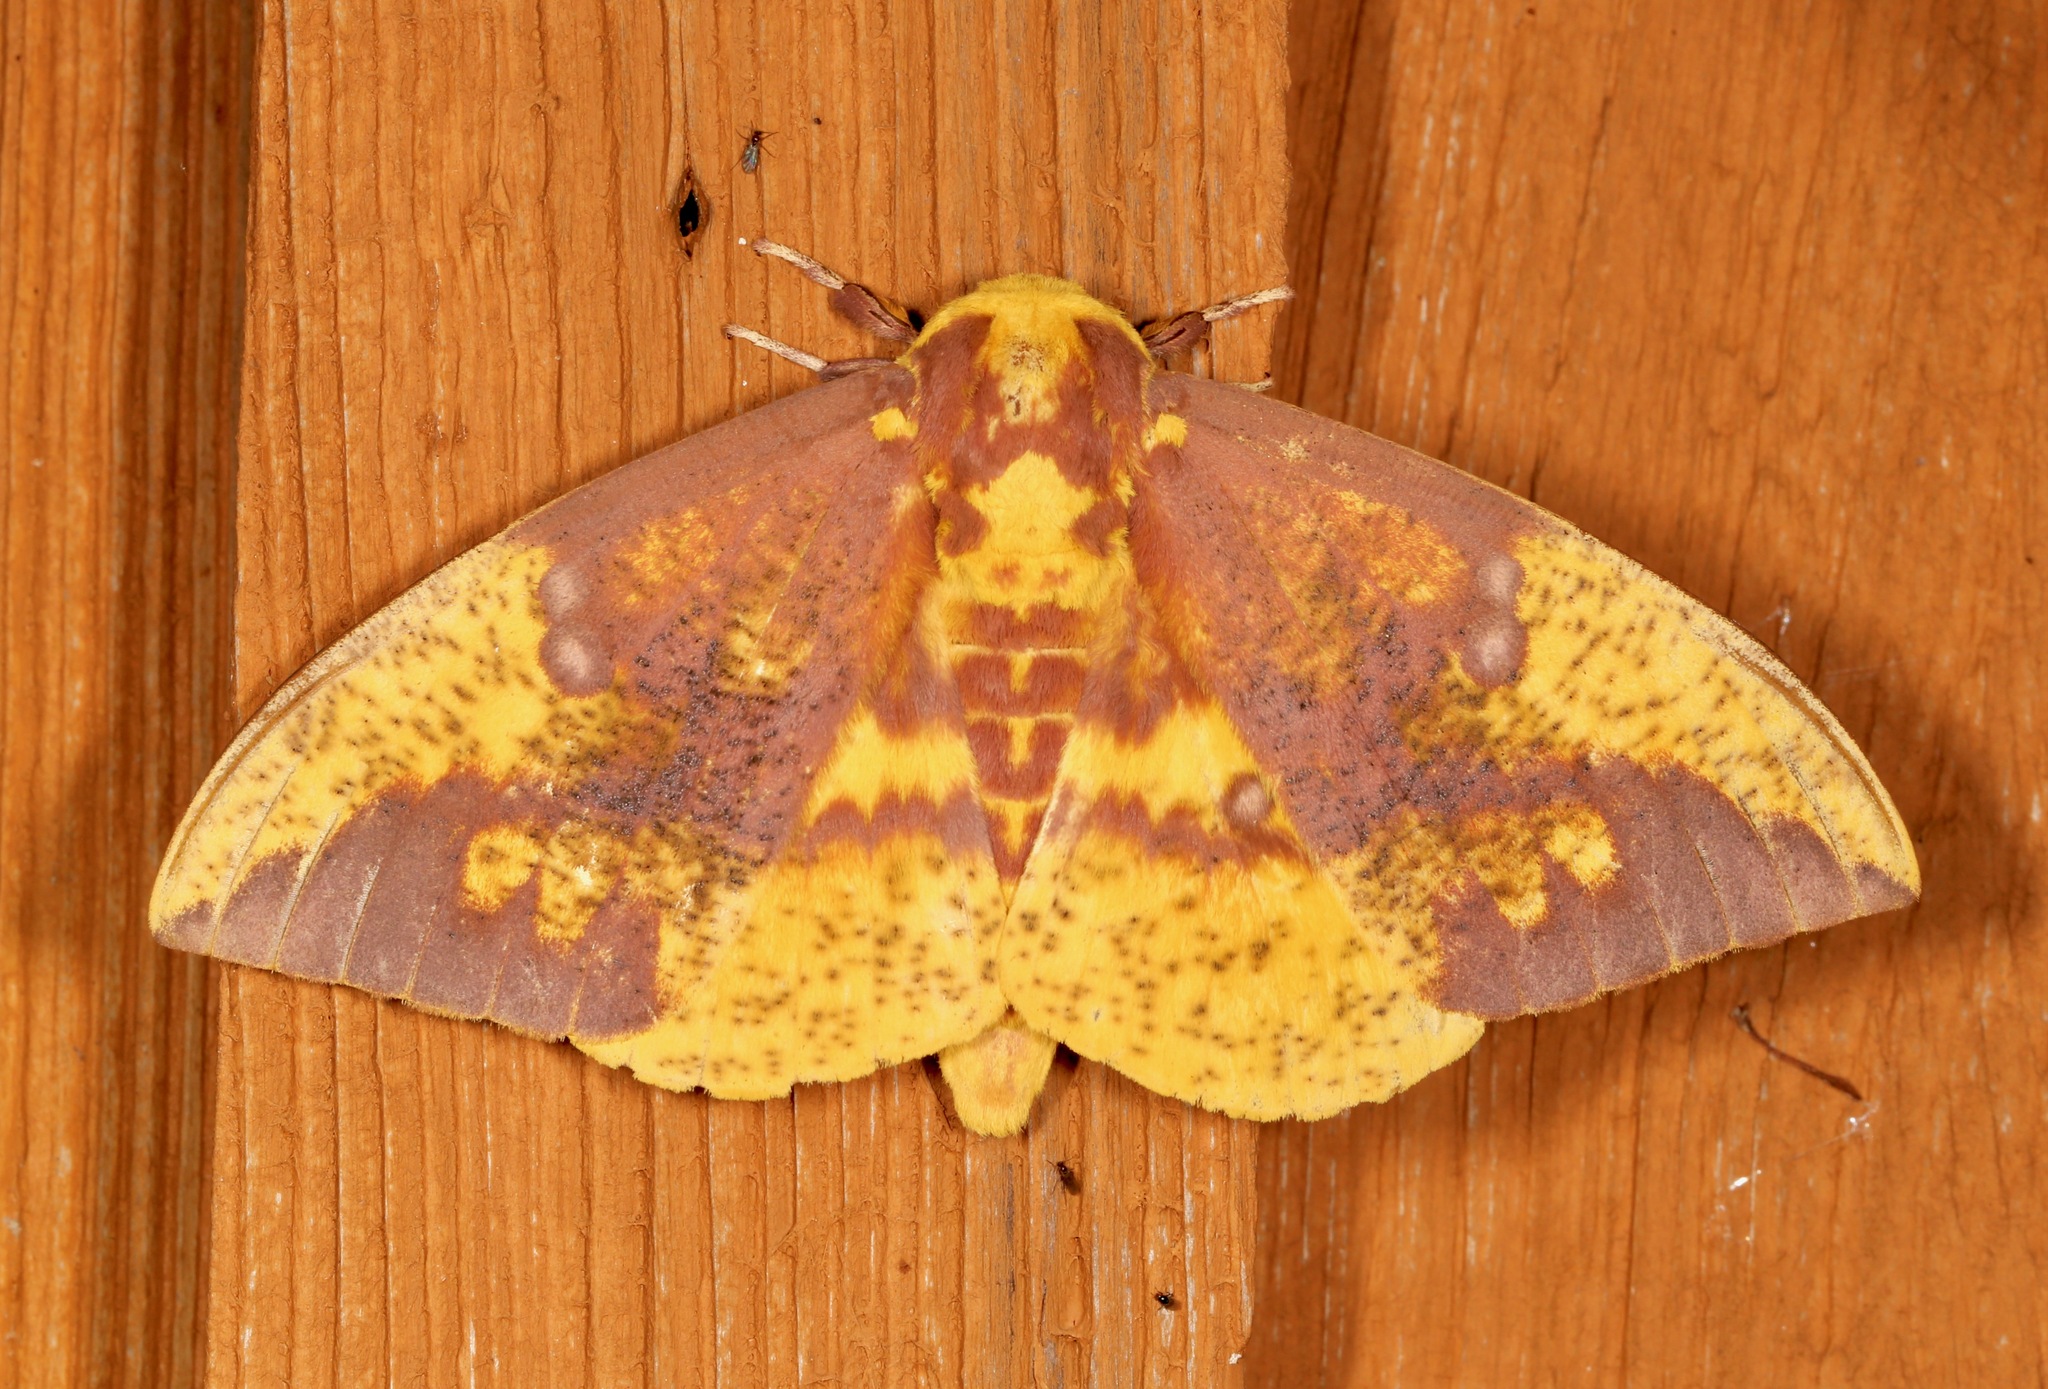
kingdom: Animalia
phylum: Arthropoda
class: Insecta
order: Lepidoptera
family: Saturniidae
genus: Eacles
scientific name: Eacles imperialis
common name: Imperial moth
